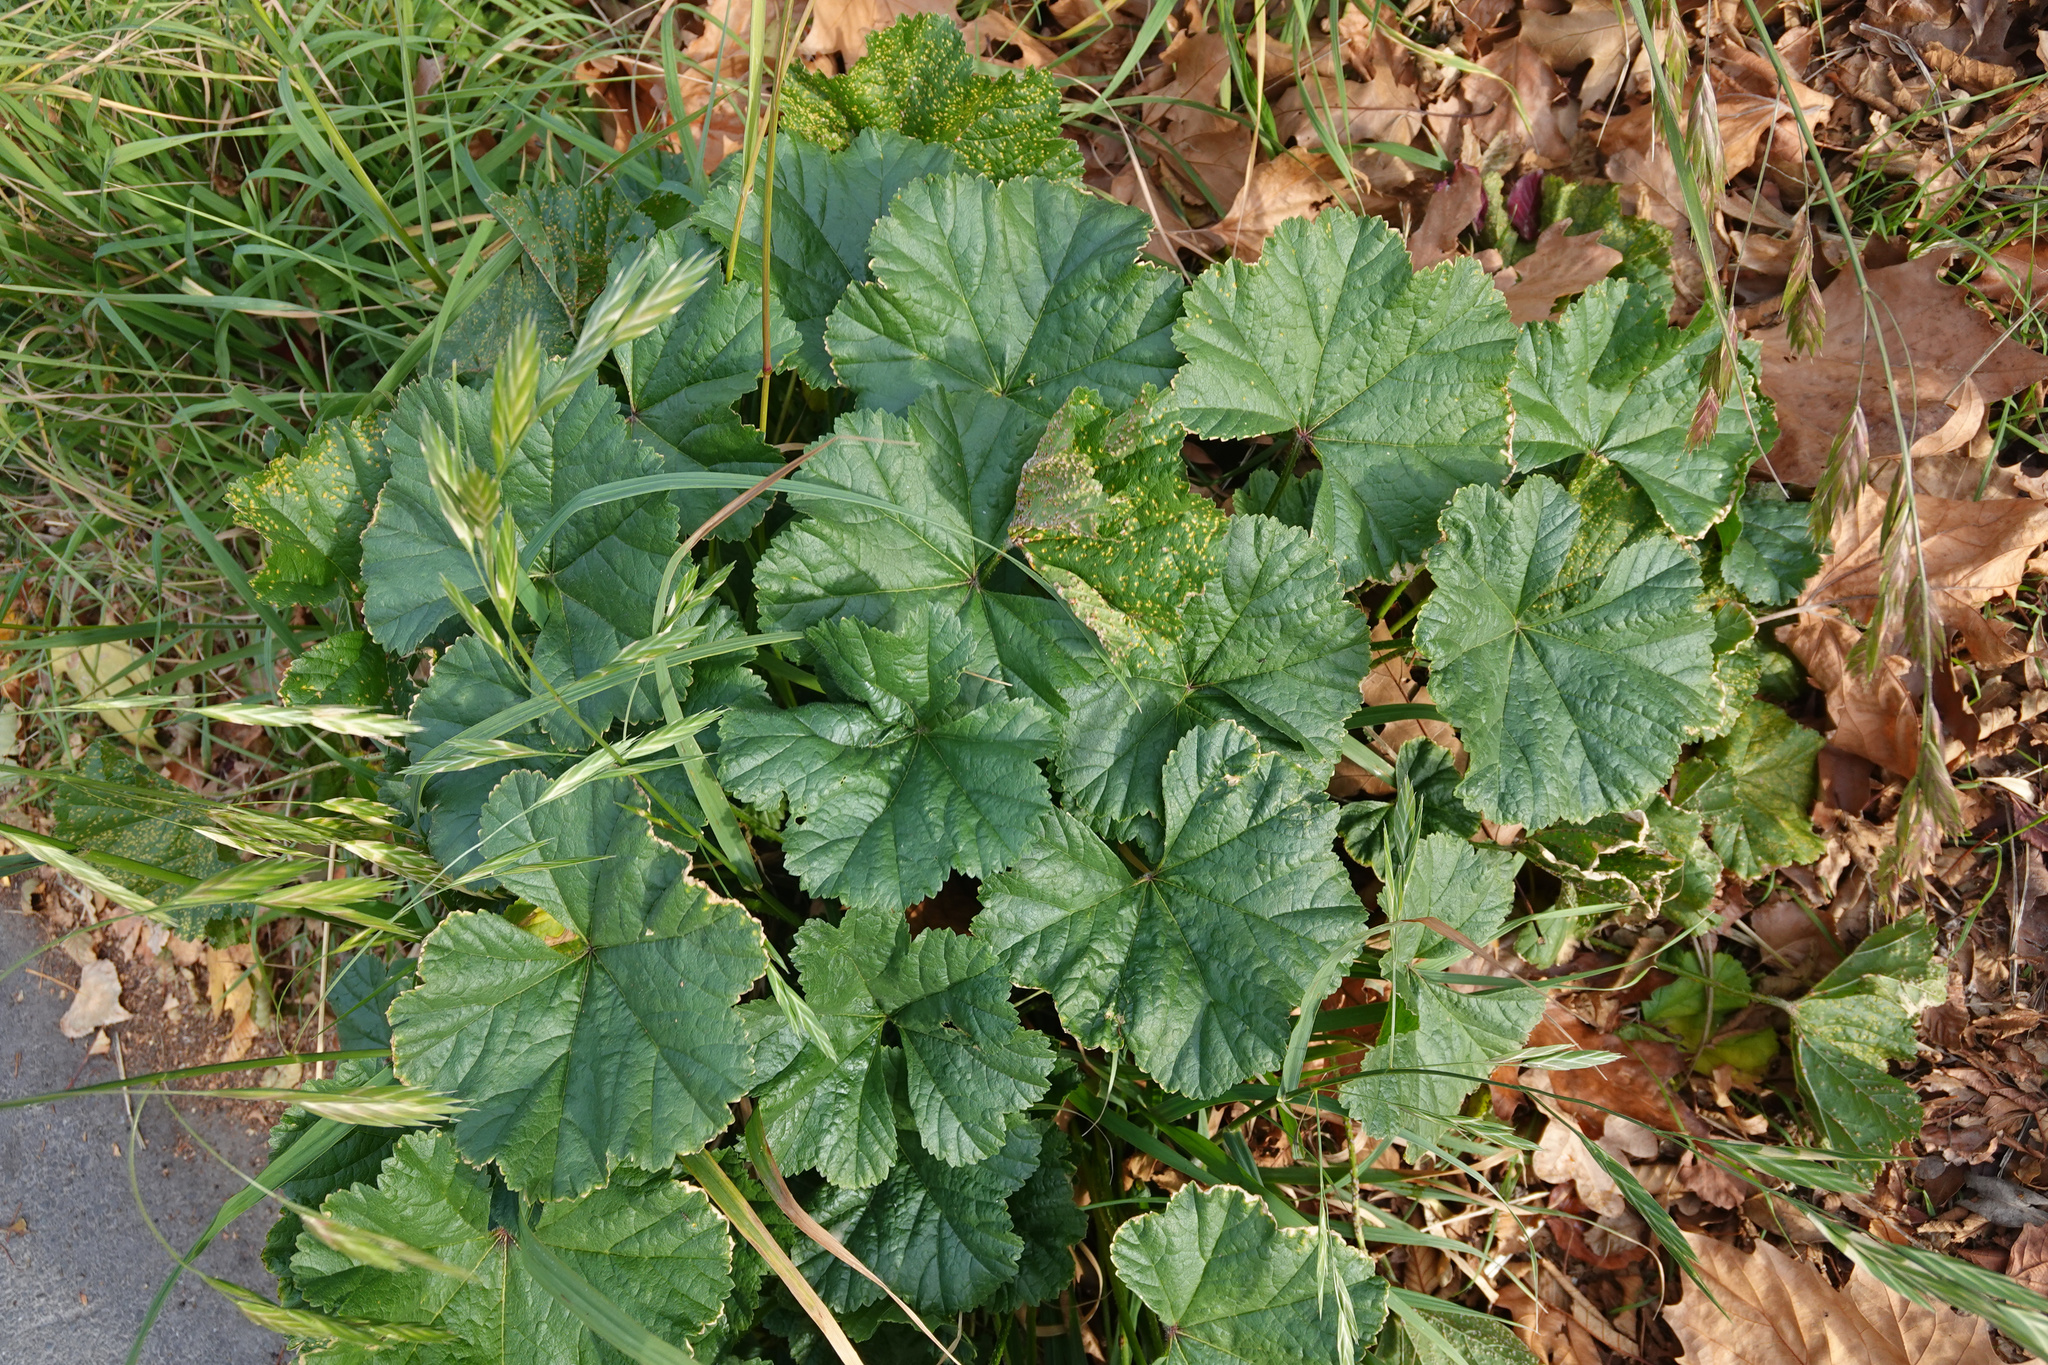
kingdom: Plantae
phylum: Tracheophyta
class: Magnoliopsida
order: Malvales
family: Malvaceae
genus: Malva
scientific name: Malva sylvestris
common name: Common mallow
